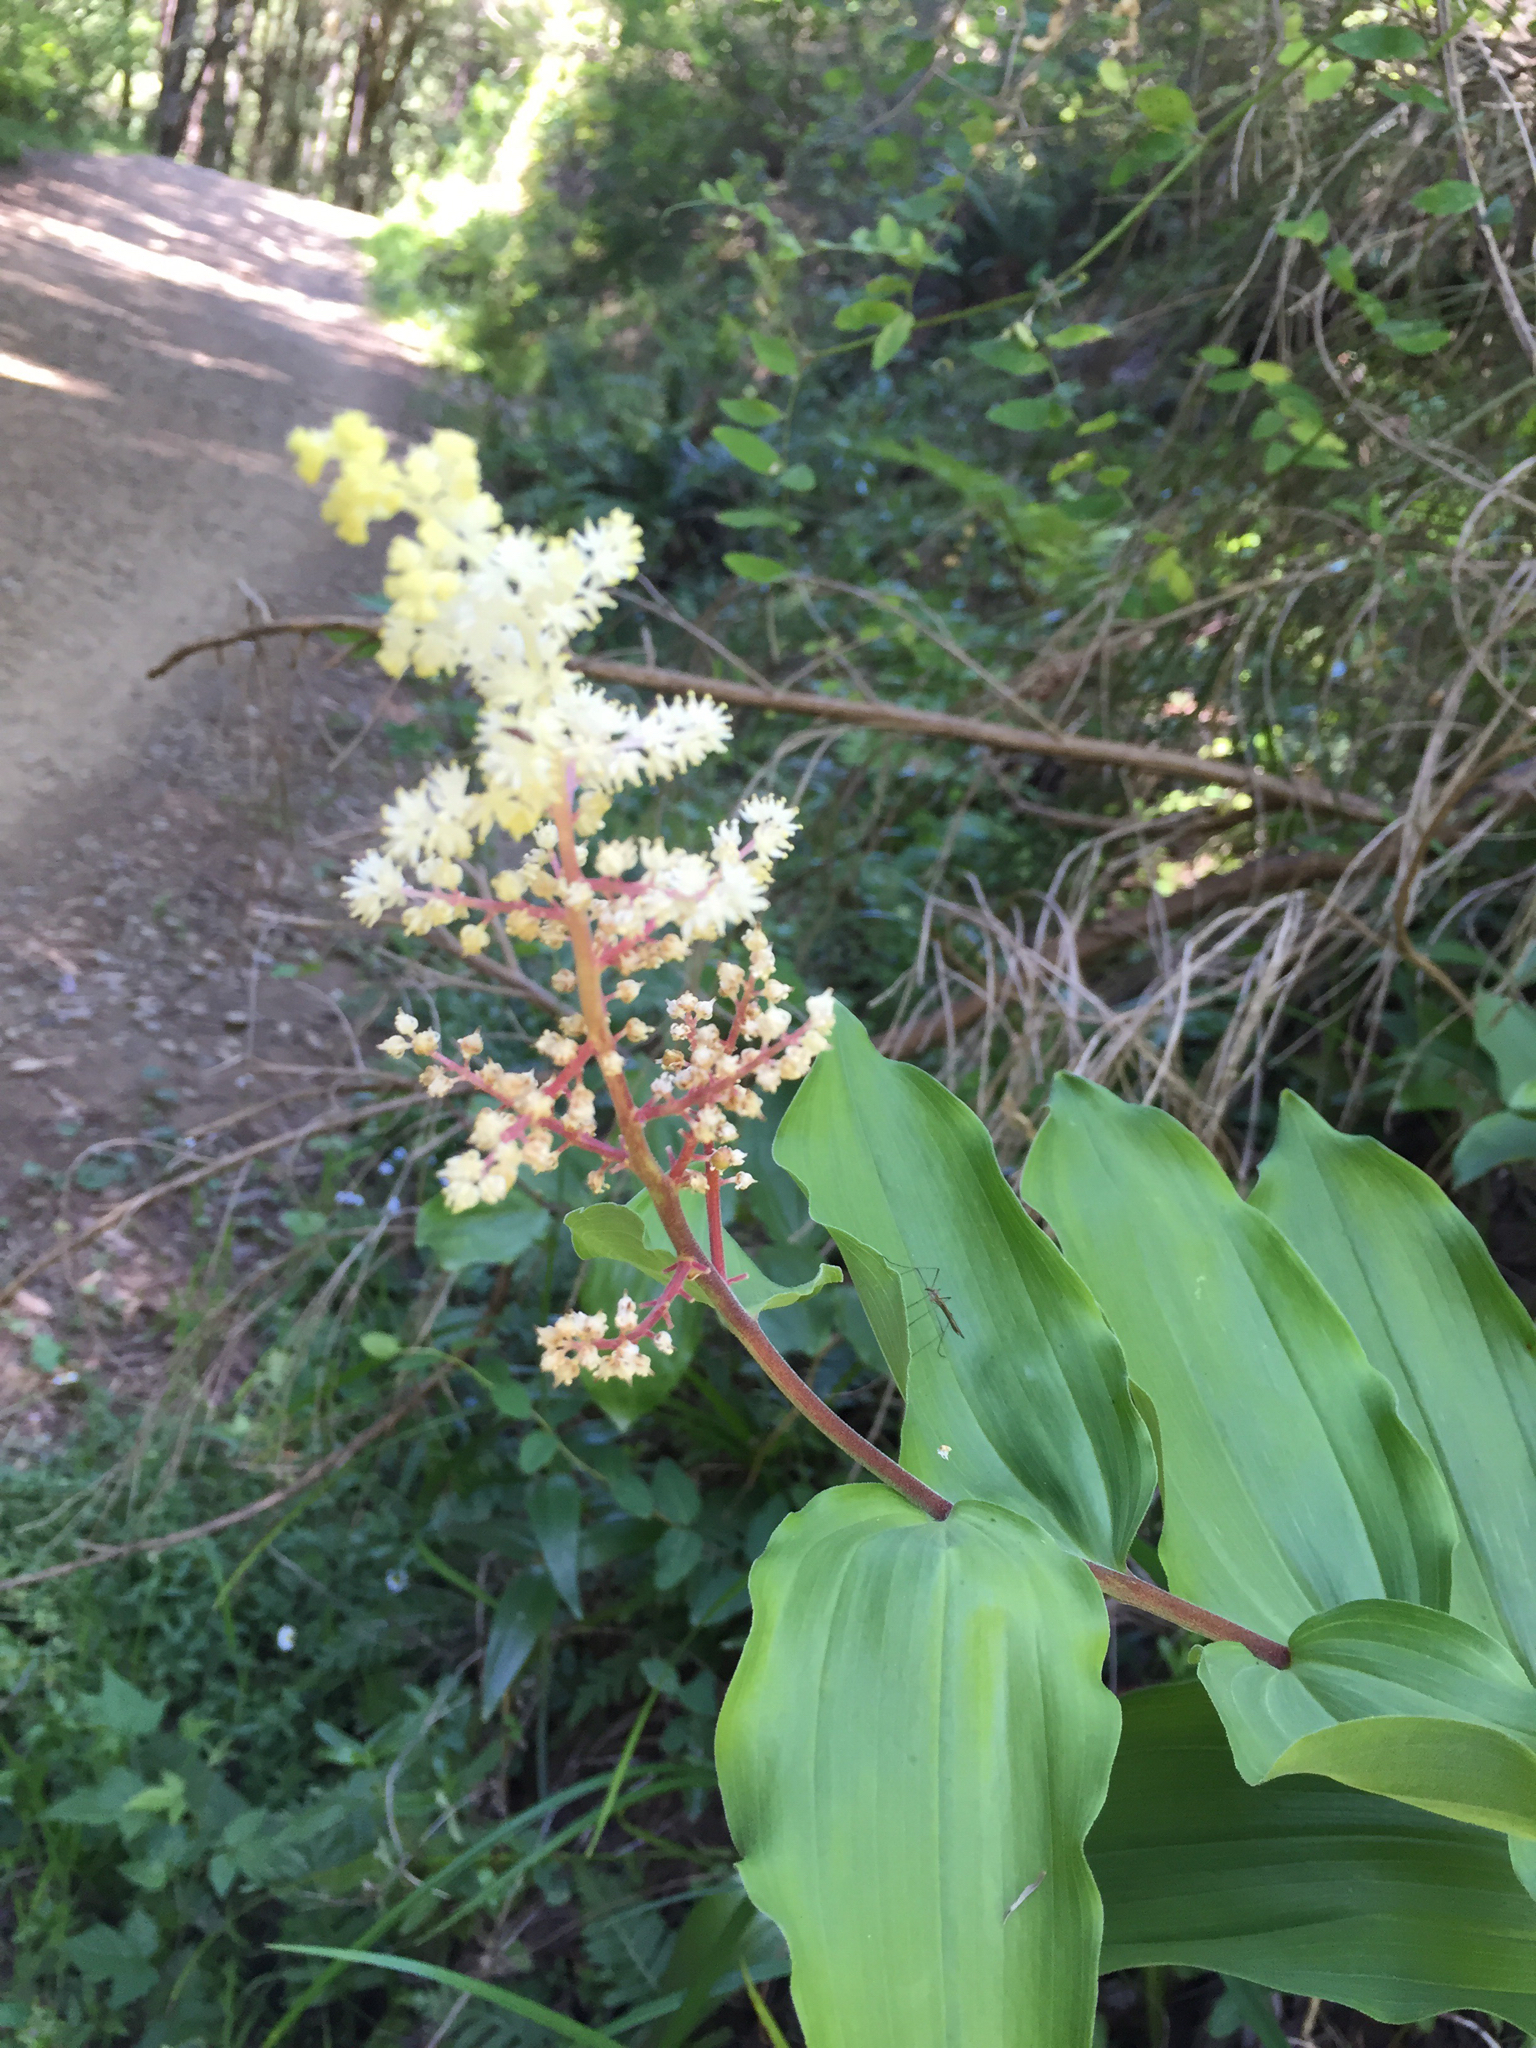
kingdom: Plantae
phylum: Tracheophyta
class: Liliopsida
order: Asparagales
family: Asparagaceae
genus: Maianthemum
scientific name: Maianthemum racemosum
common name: False spikenard
